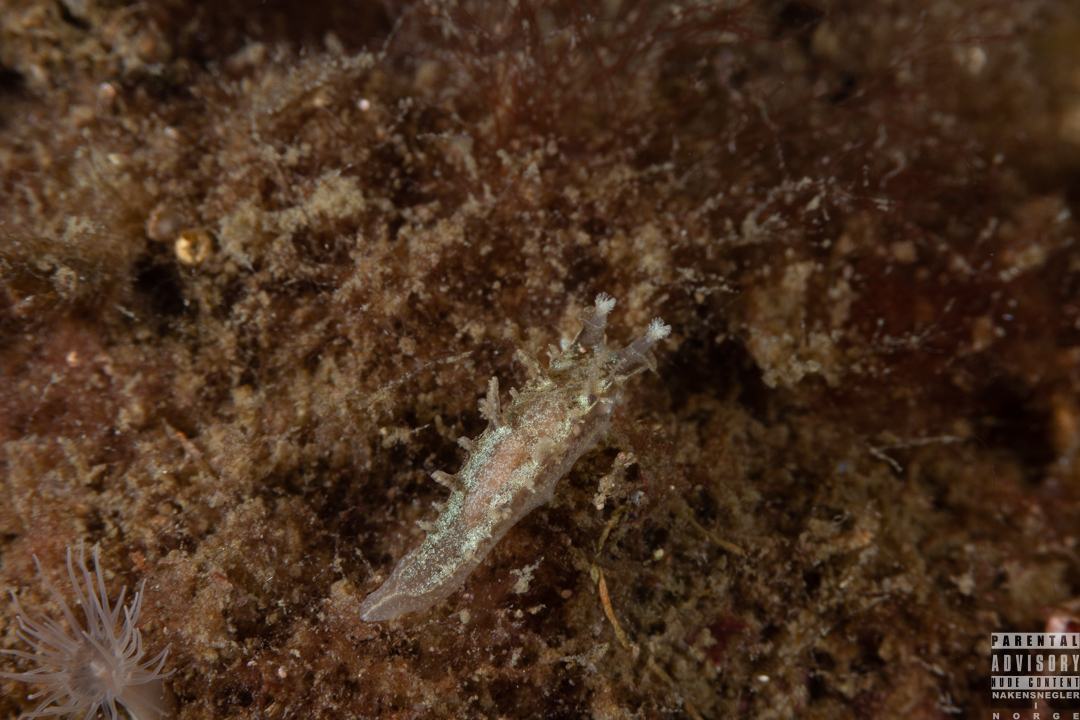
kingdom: Animalia
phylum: Mollusca
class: Gastropoda
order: Nudibranchia
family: Tritoniidae
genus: Duvaucelia
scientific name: Duvaucelia plebeia
